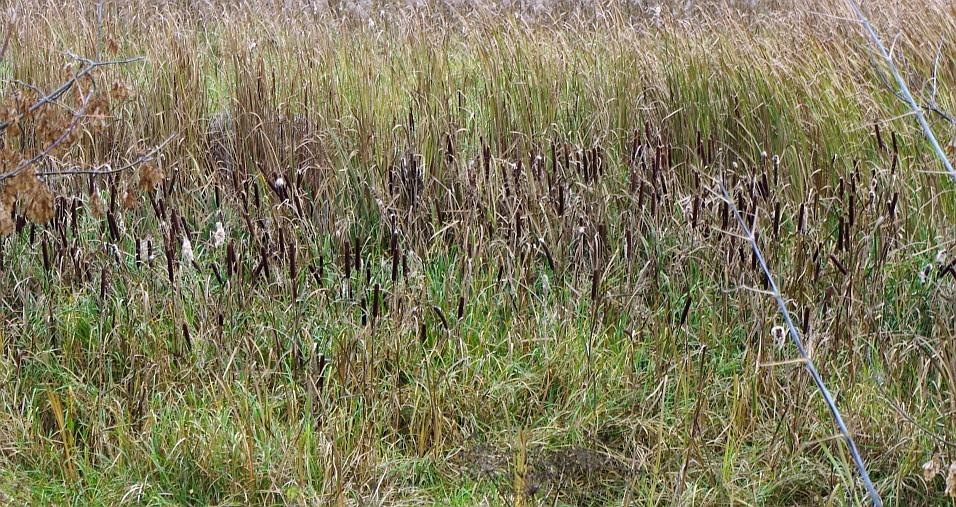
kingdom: Plantae
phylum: Tracheophyta
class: Liliopsida
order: Poales
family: Typhaceae
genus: Typha
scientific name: Typha latifolia
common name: Broadleaf cattail
